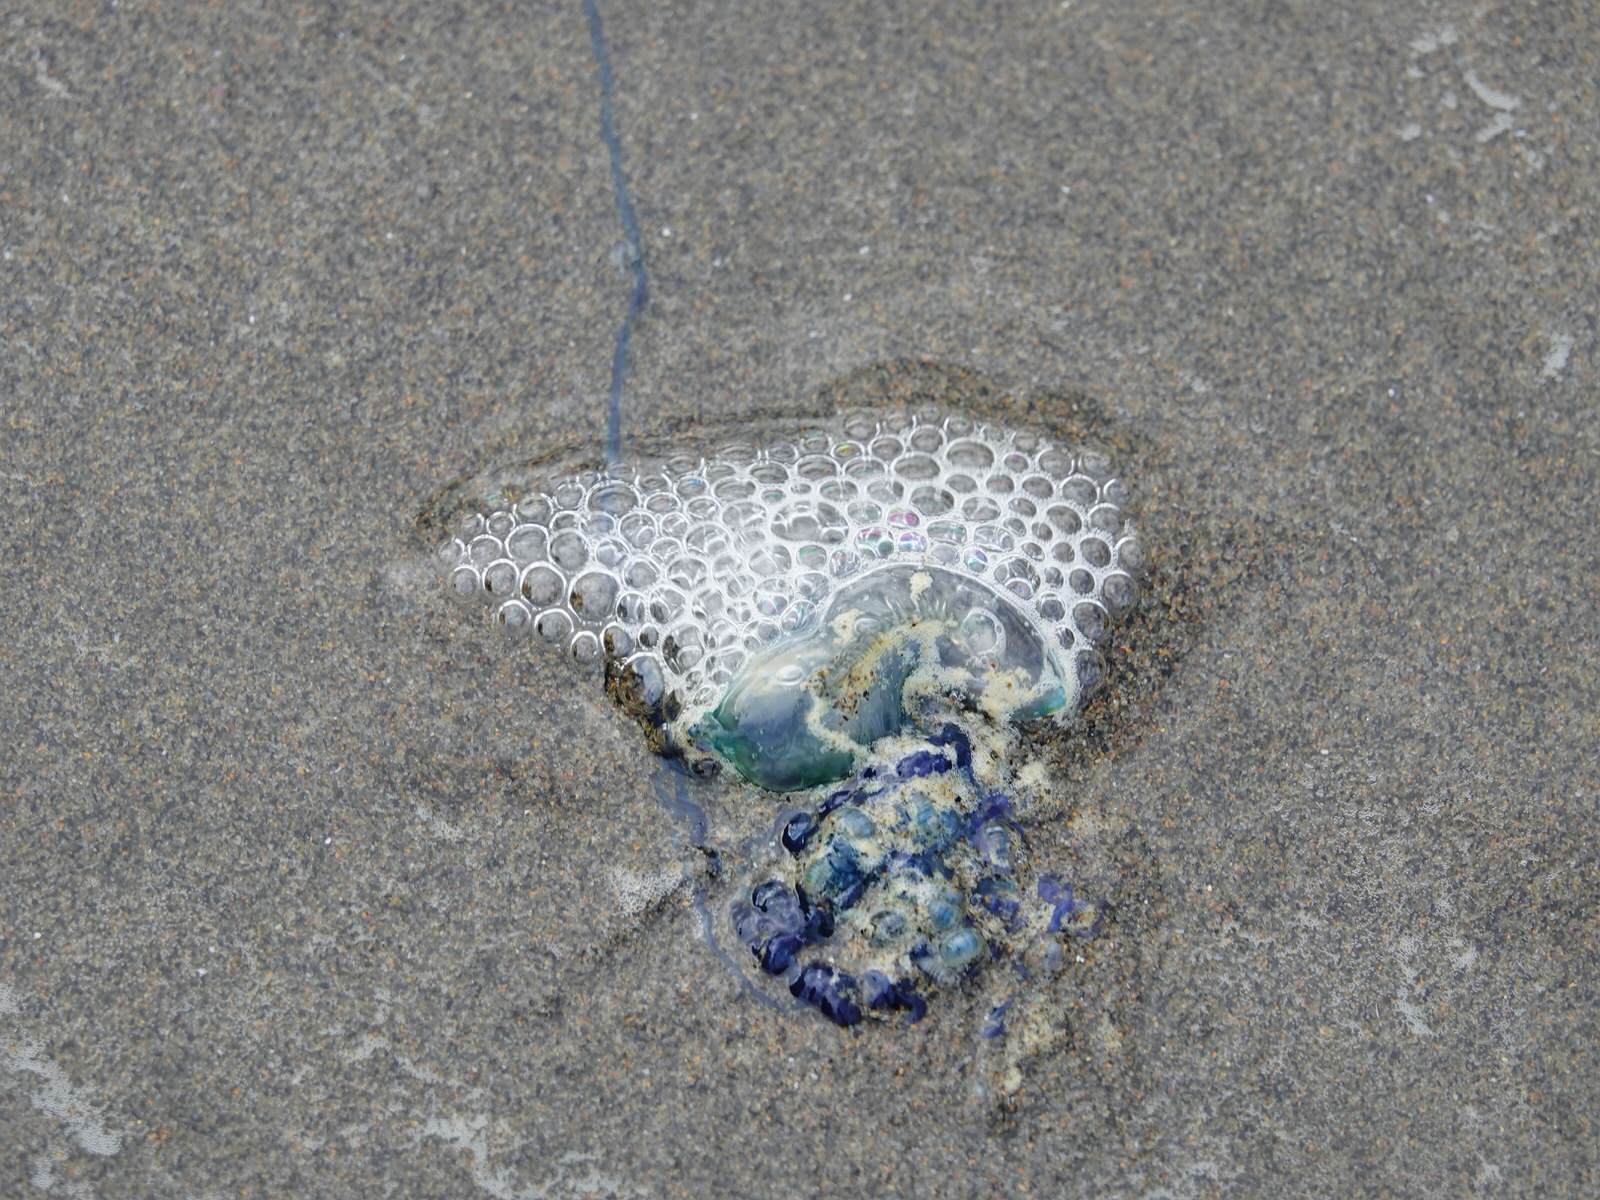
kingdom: Animalia
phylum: Cnidaria
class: Hydrozoa
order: Siphonophorae
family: Physaliidae
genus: Physalia
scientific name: Physalia physalis
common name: Portuguese man-of-war
